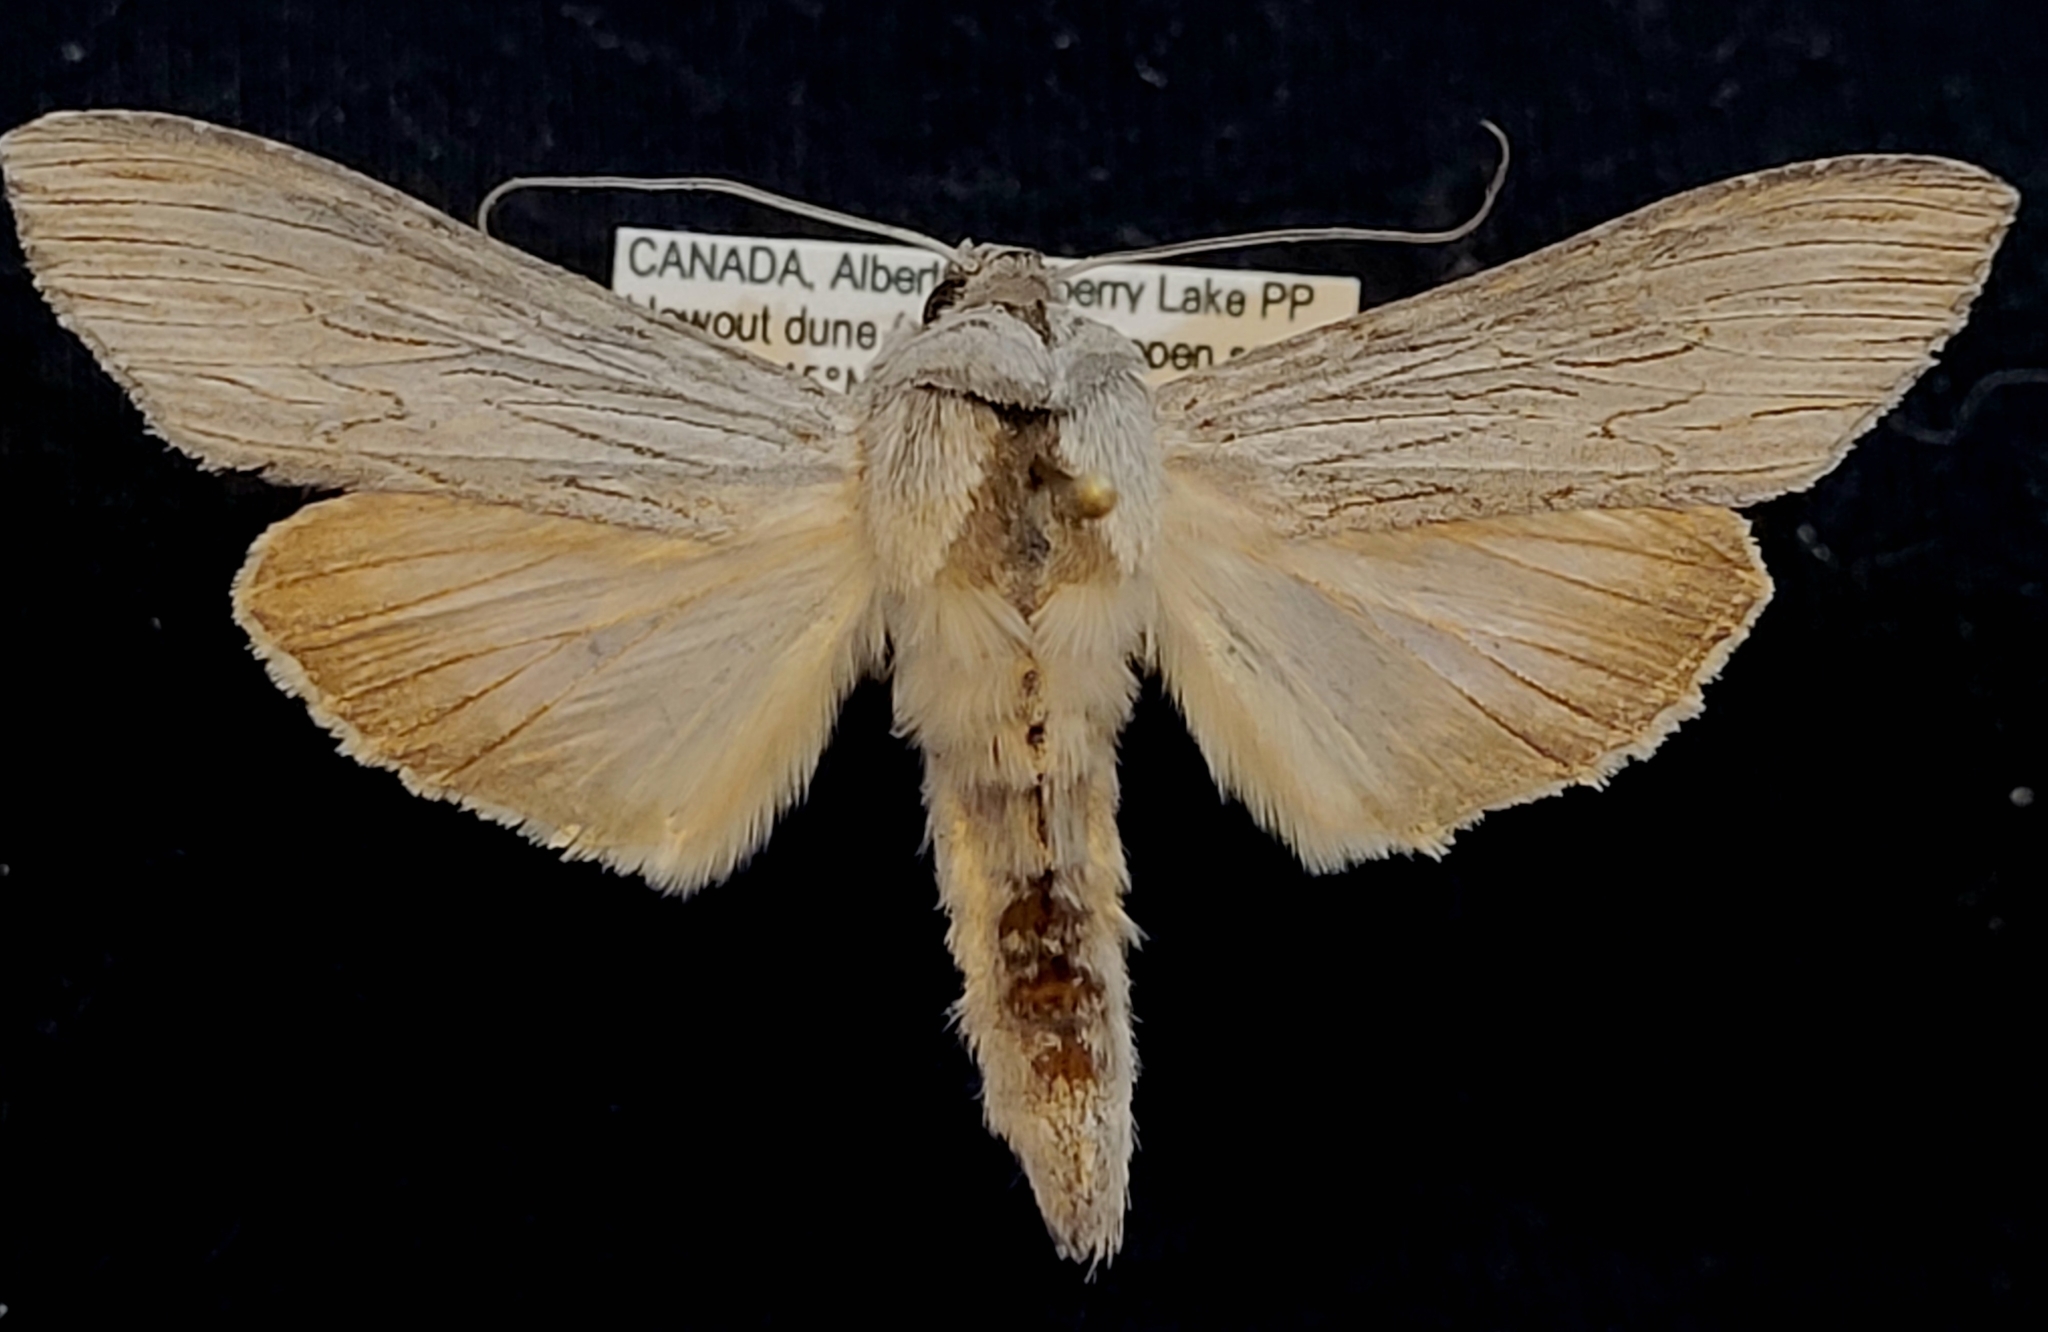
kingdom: Animalia
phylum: Arthropoda
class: Insecta
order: Lepidoptera
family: Noctuidae
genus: Cucullia
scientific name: Cucullia speyeri
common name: Speyer's cucullia moth
